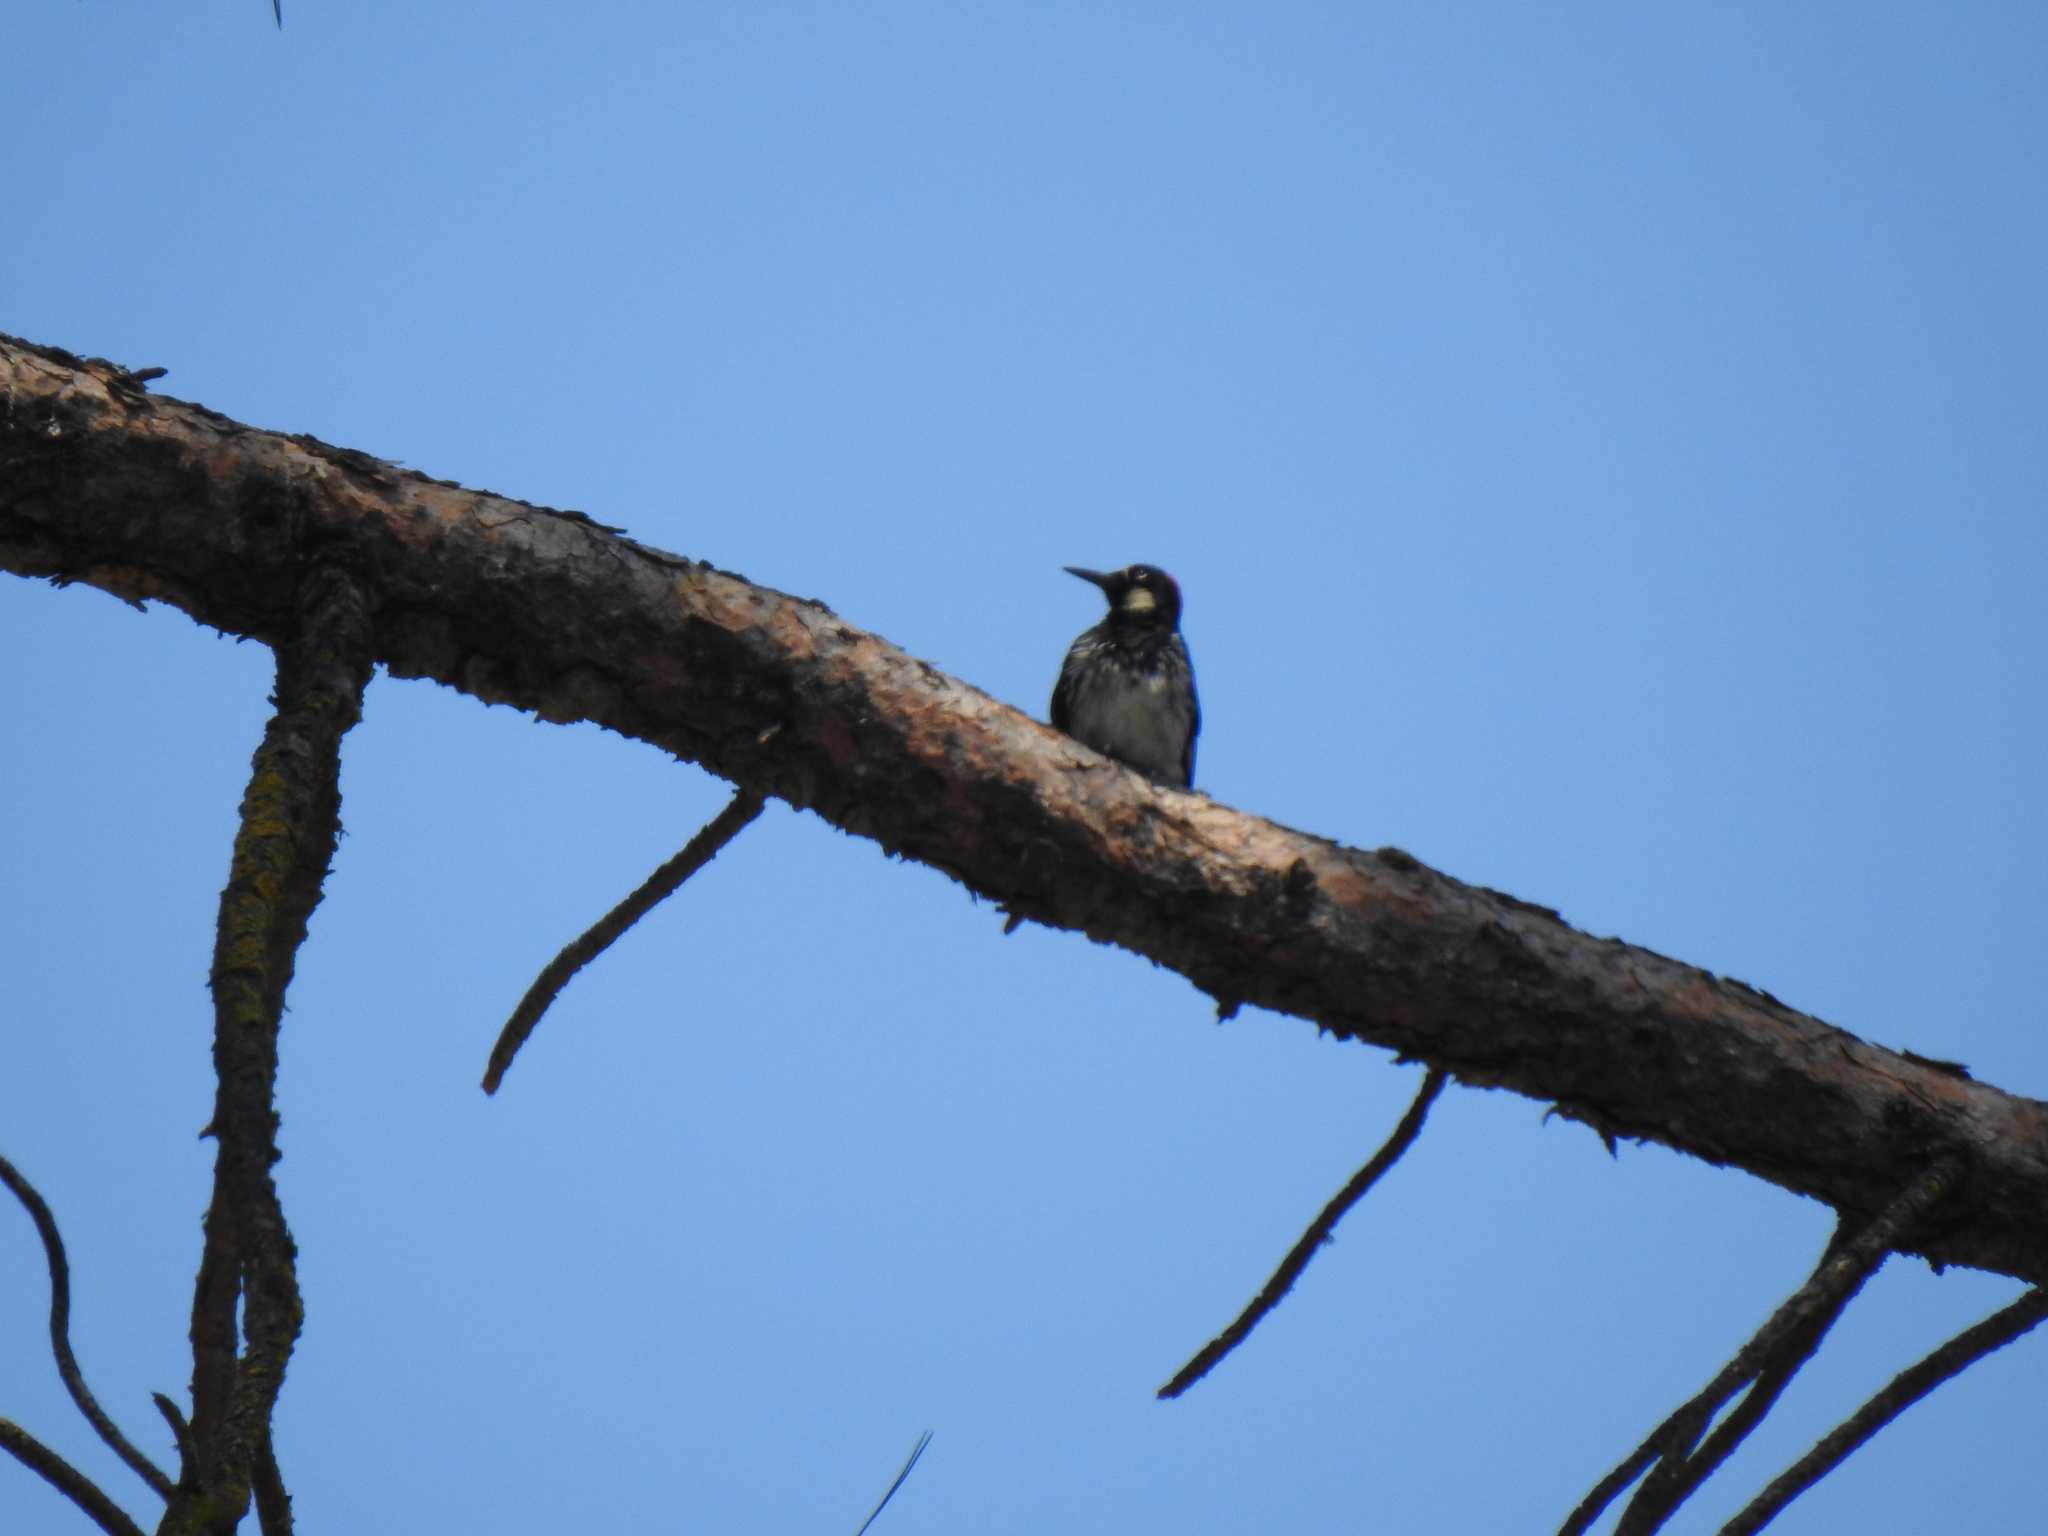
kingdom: Animalia
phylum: Chordata
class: Aves
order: Piciformes
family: Picidae
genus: Melanerpes
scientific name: Melanerpes formicivorus
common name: Acorn woodpecker
